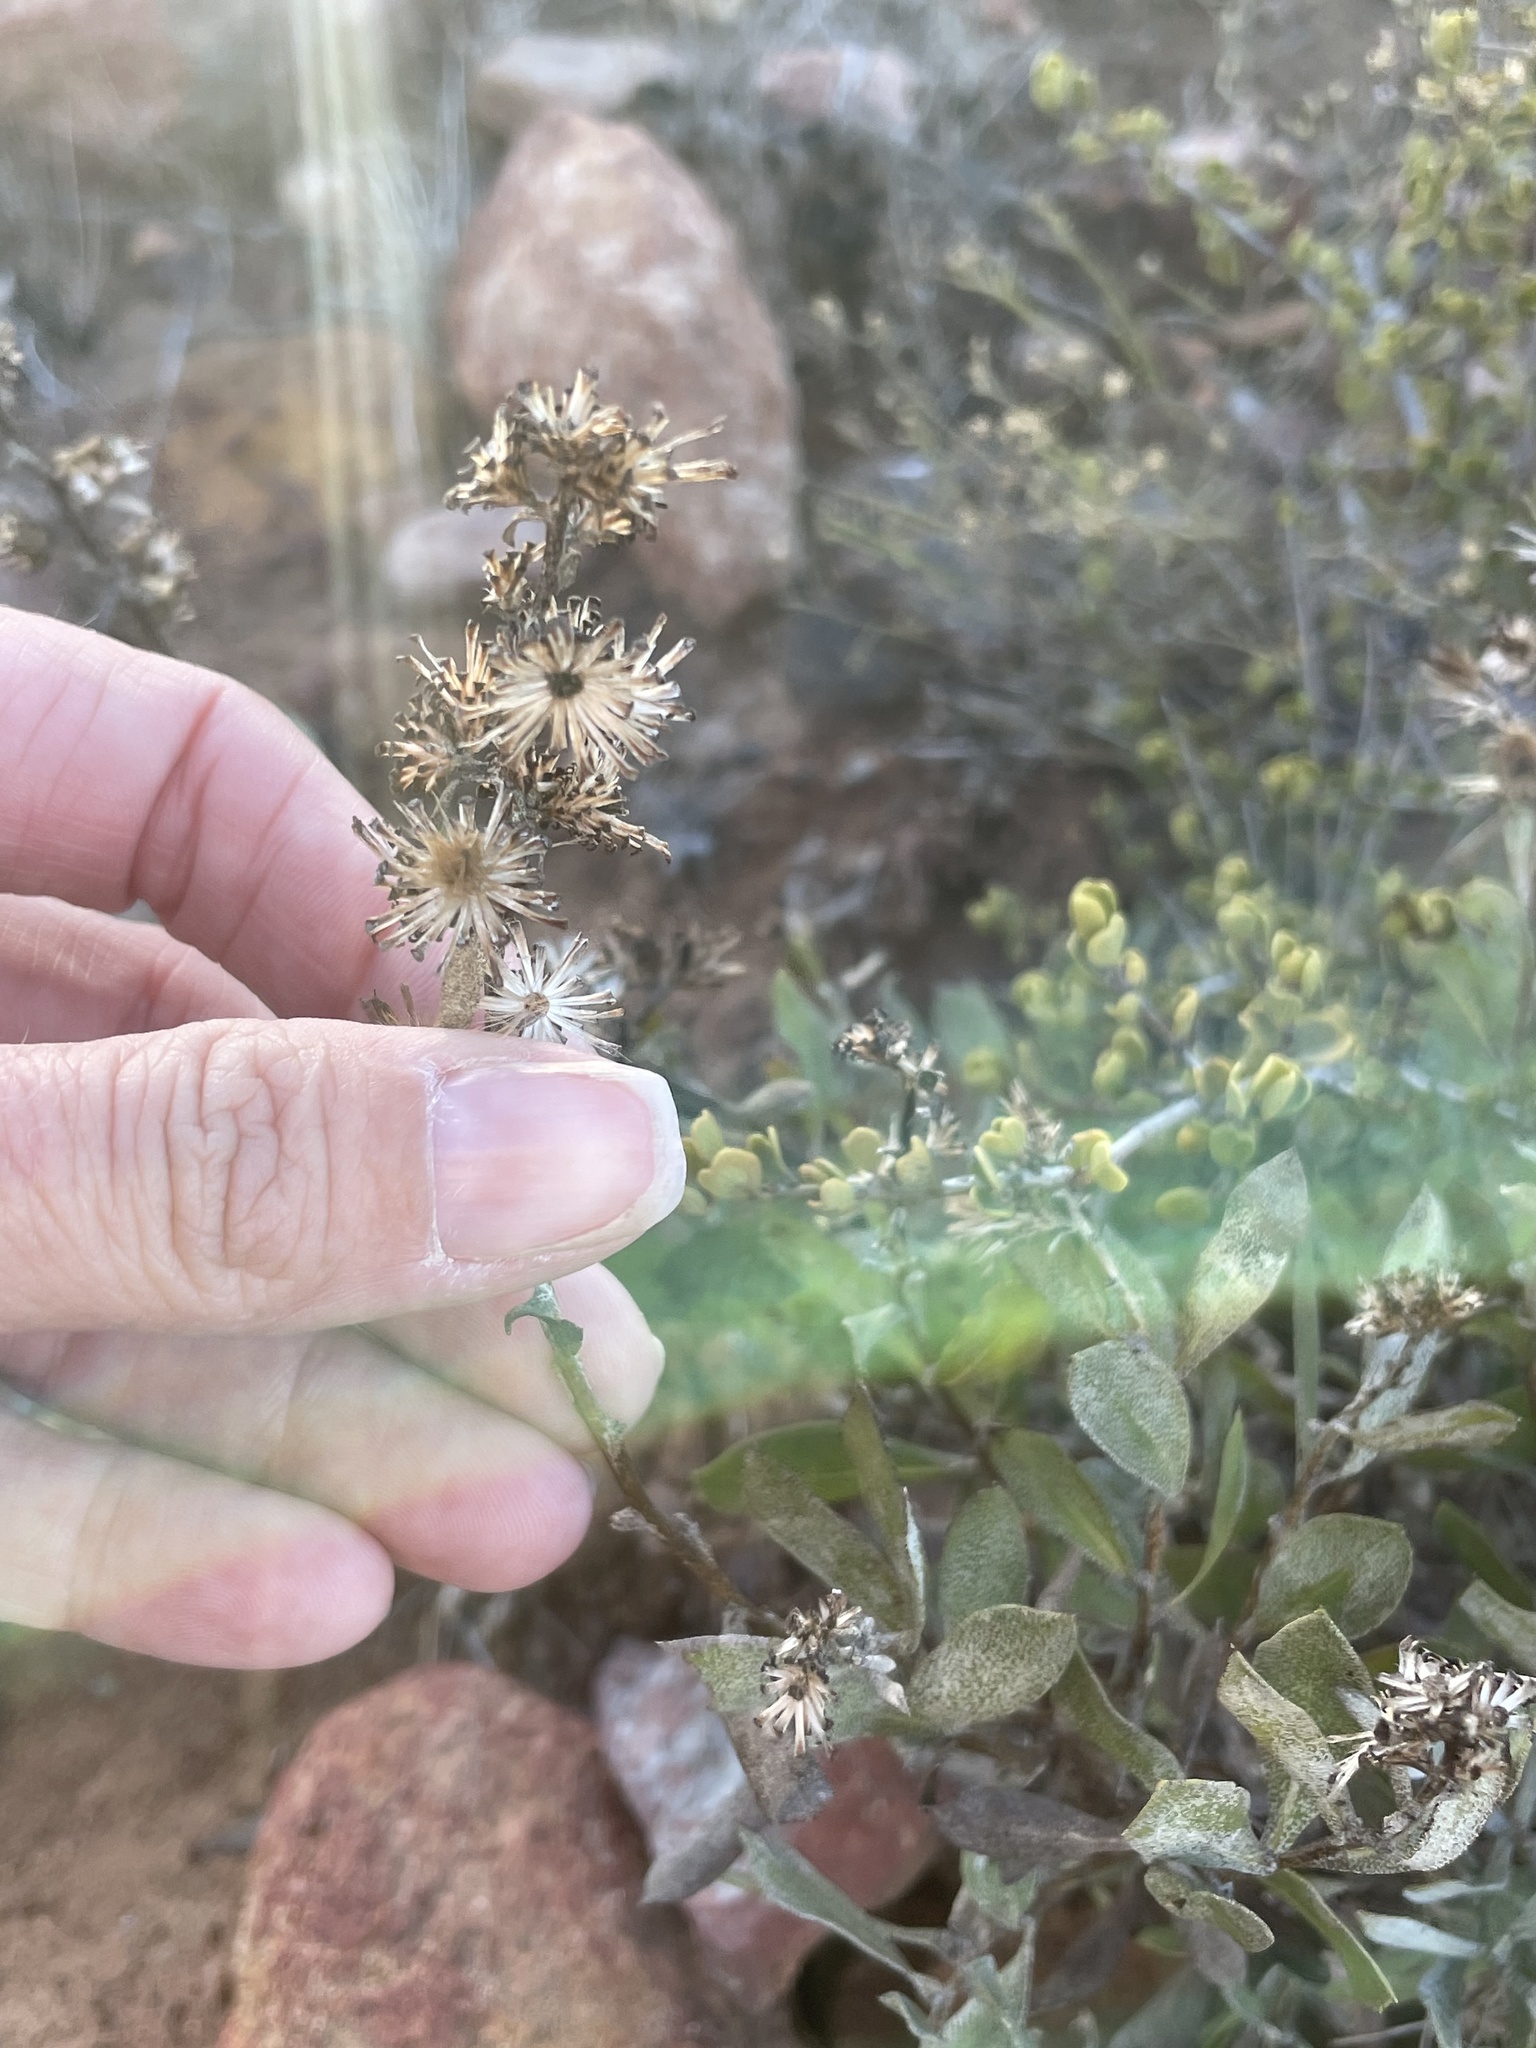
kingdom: Plantae
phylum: Tracheophyta
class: Magnoliopsida
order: Asterales
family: Asteraceae
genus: Hazardia
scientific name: Hazardia orcuttii
